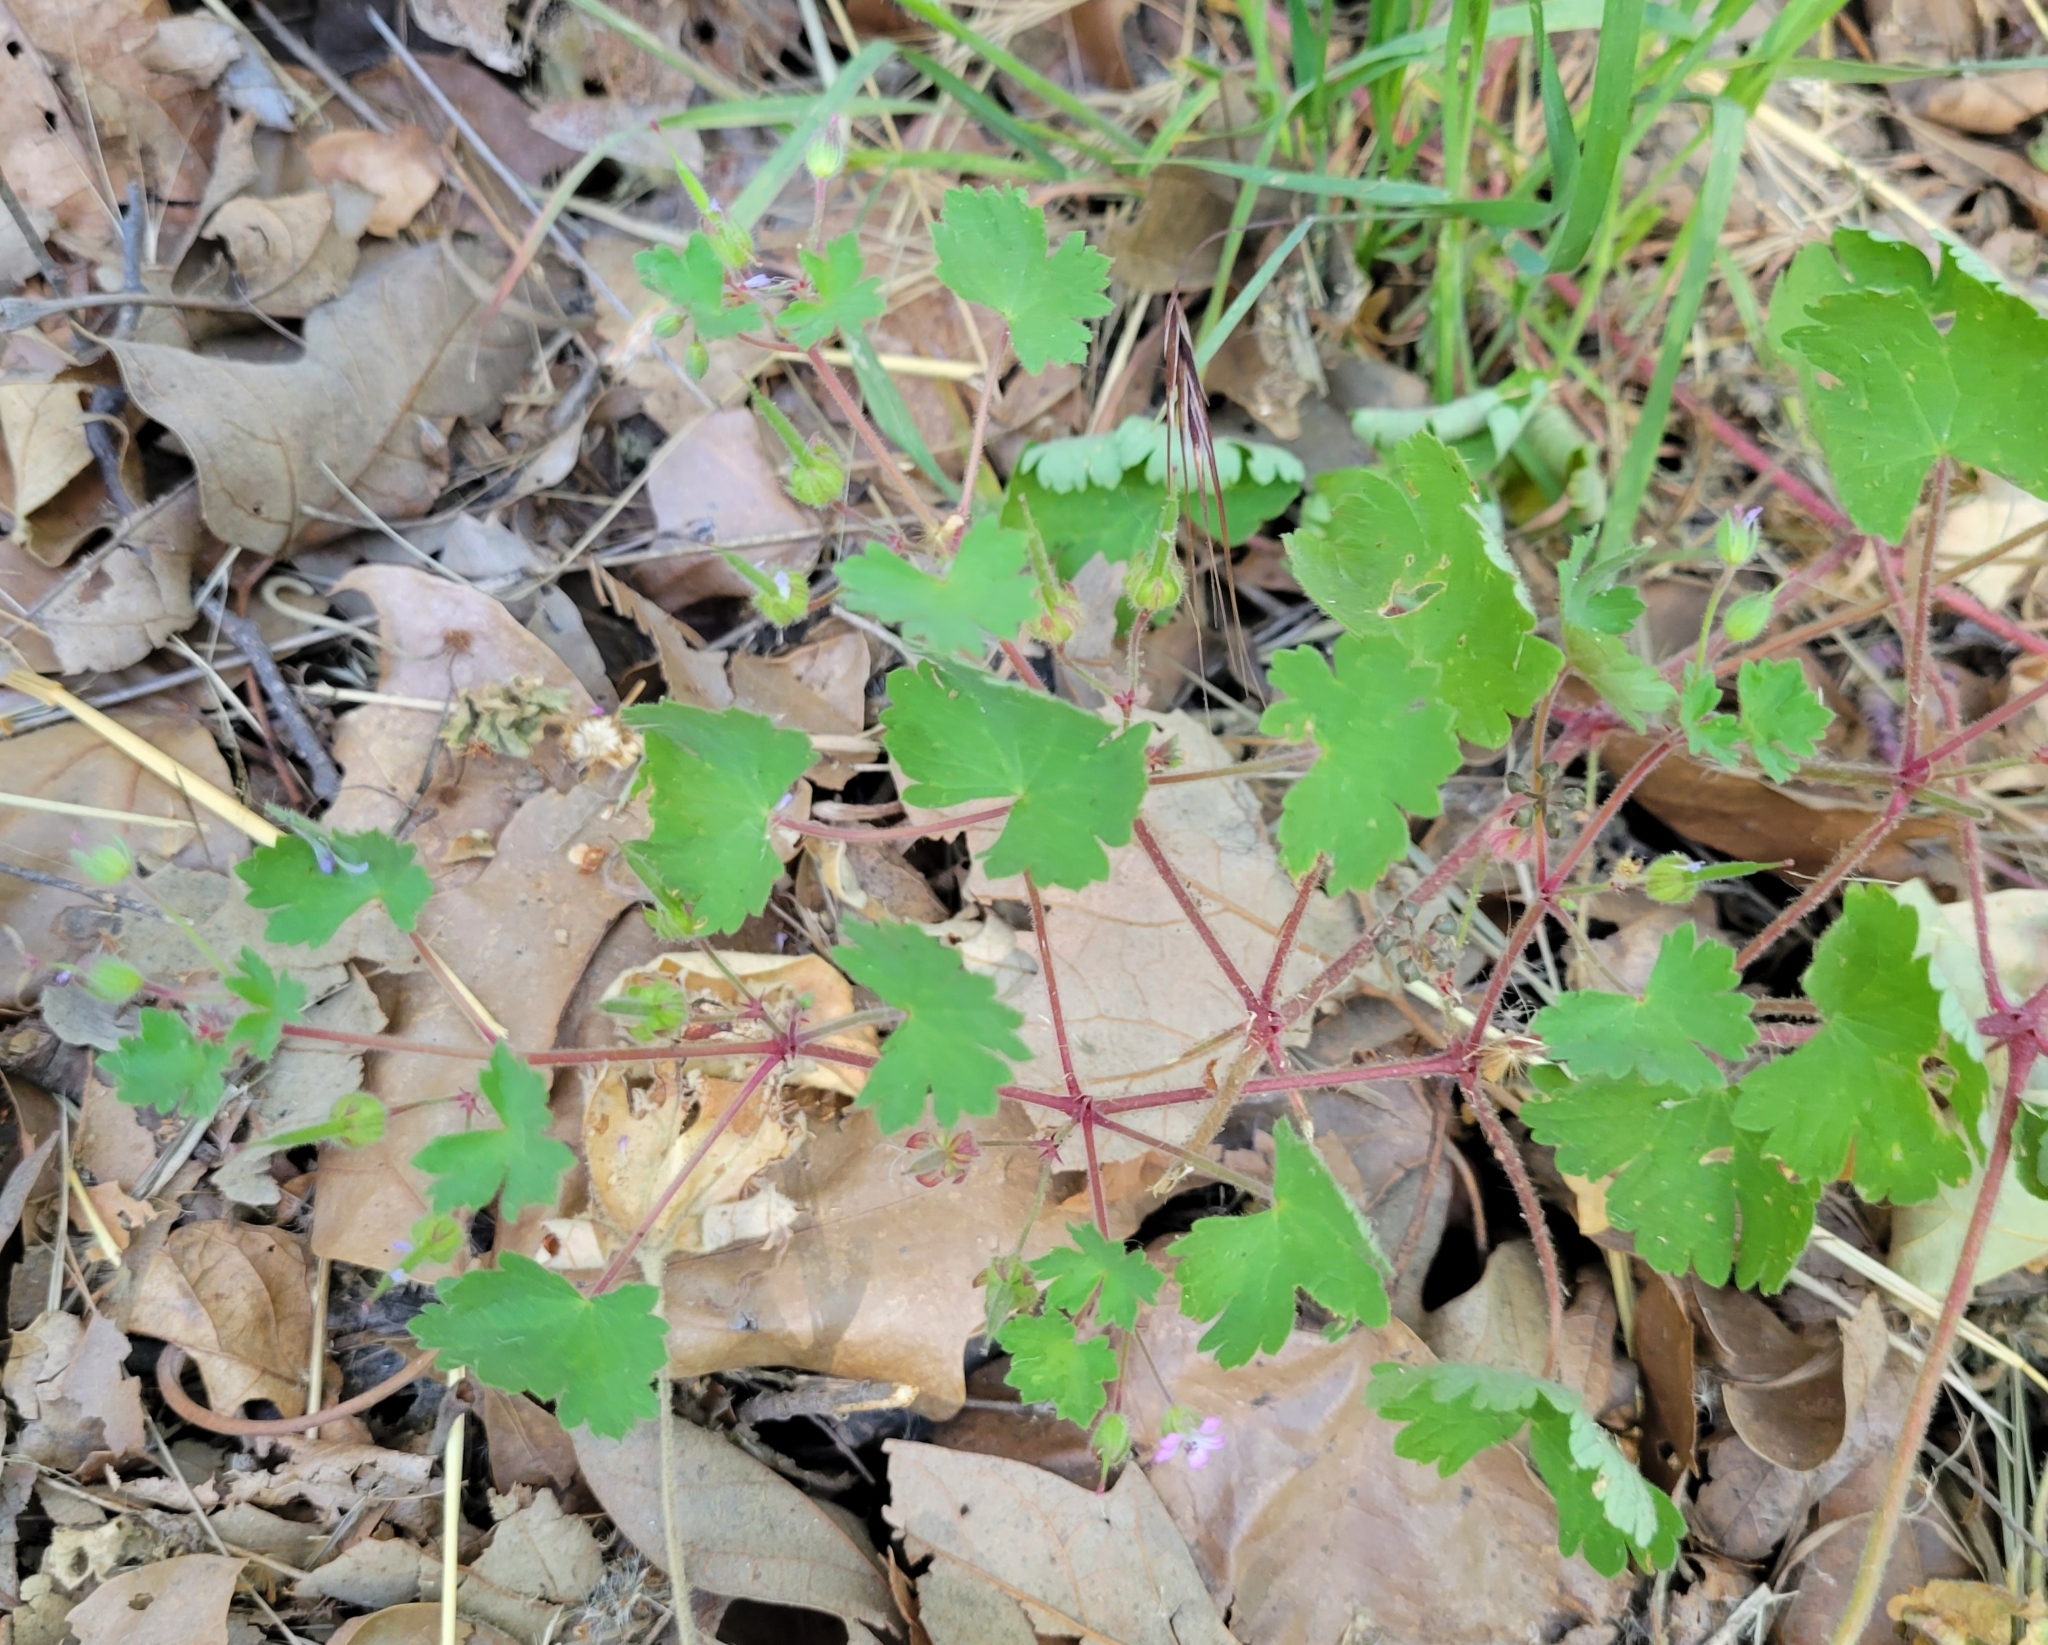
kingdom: Plantae
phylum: Tracheophyta
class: Magnoliopsida
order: Geraniales
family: Geraniaceae
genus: Geranium
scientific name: Geranium rotundifolium
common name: Round-leaved crane's-bill
